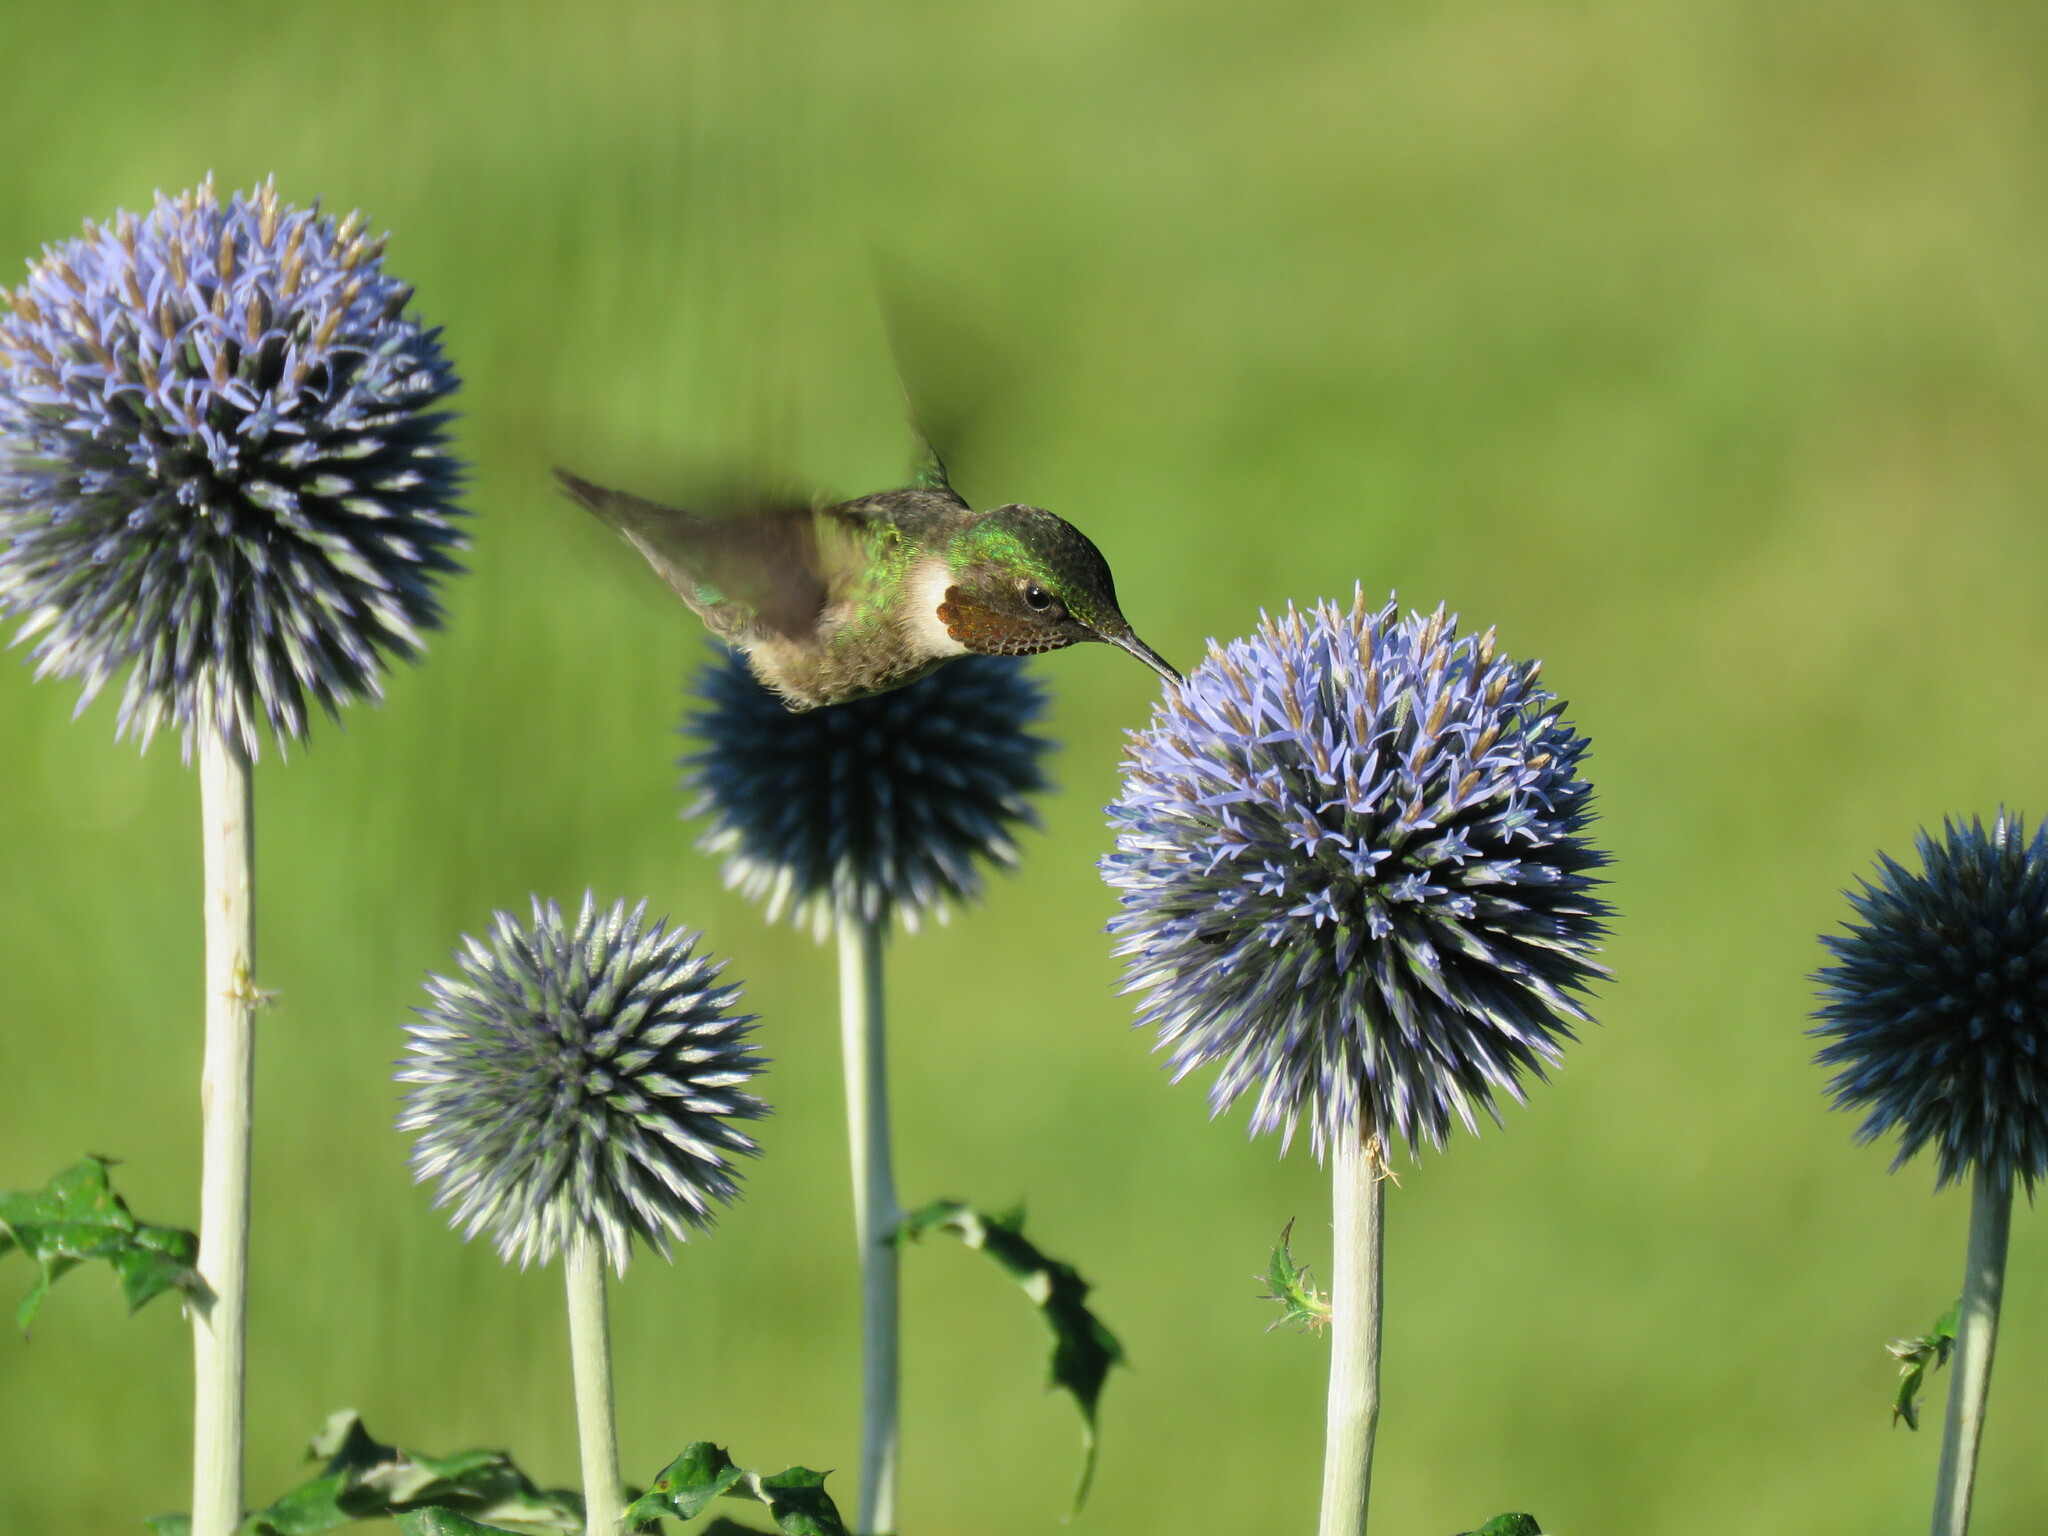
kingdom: Animalia
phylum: Chordata
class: Aves
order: Apodiformes
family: Trochilidae
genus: Archilochus
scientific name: Archilochus colubris
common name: Ruby-throated hummingbird
